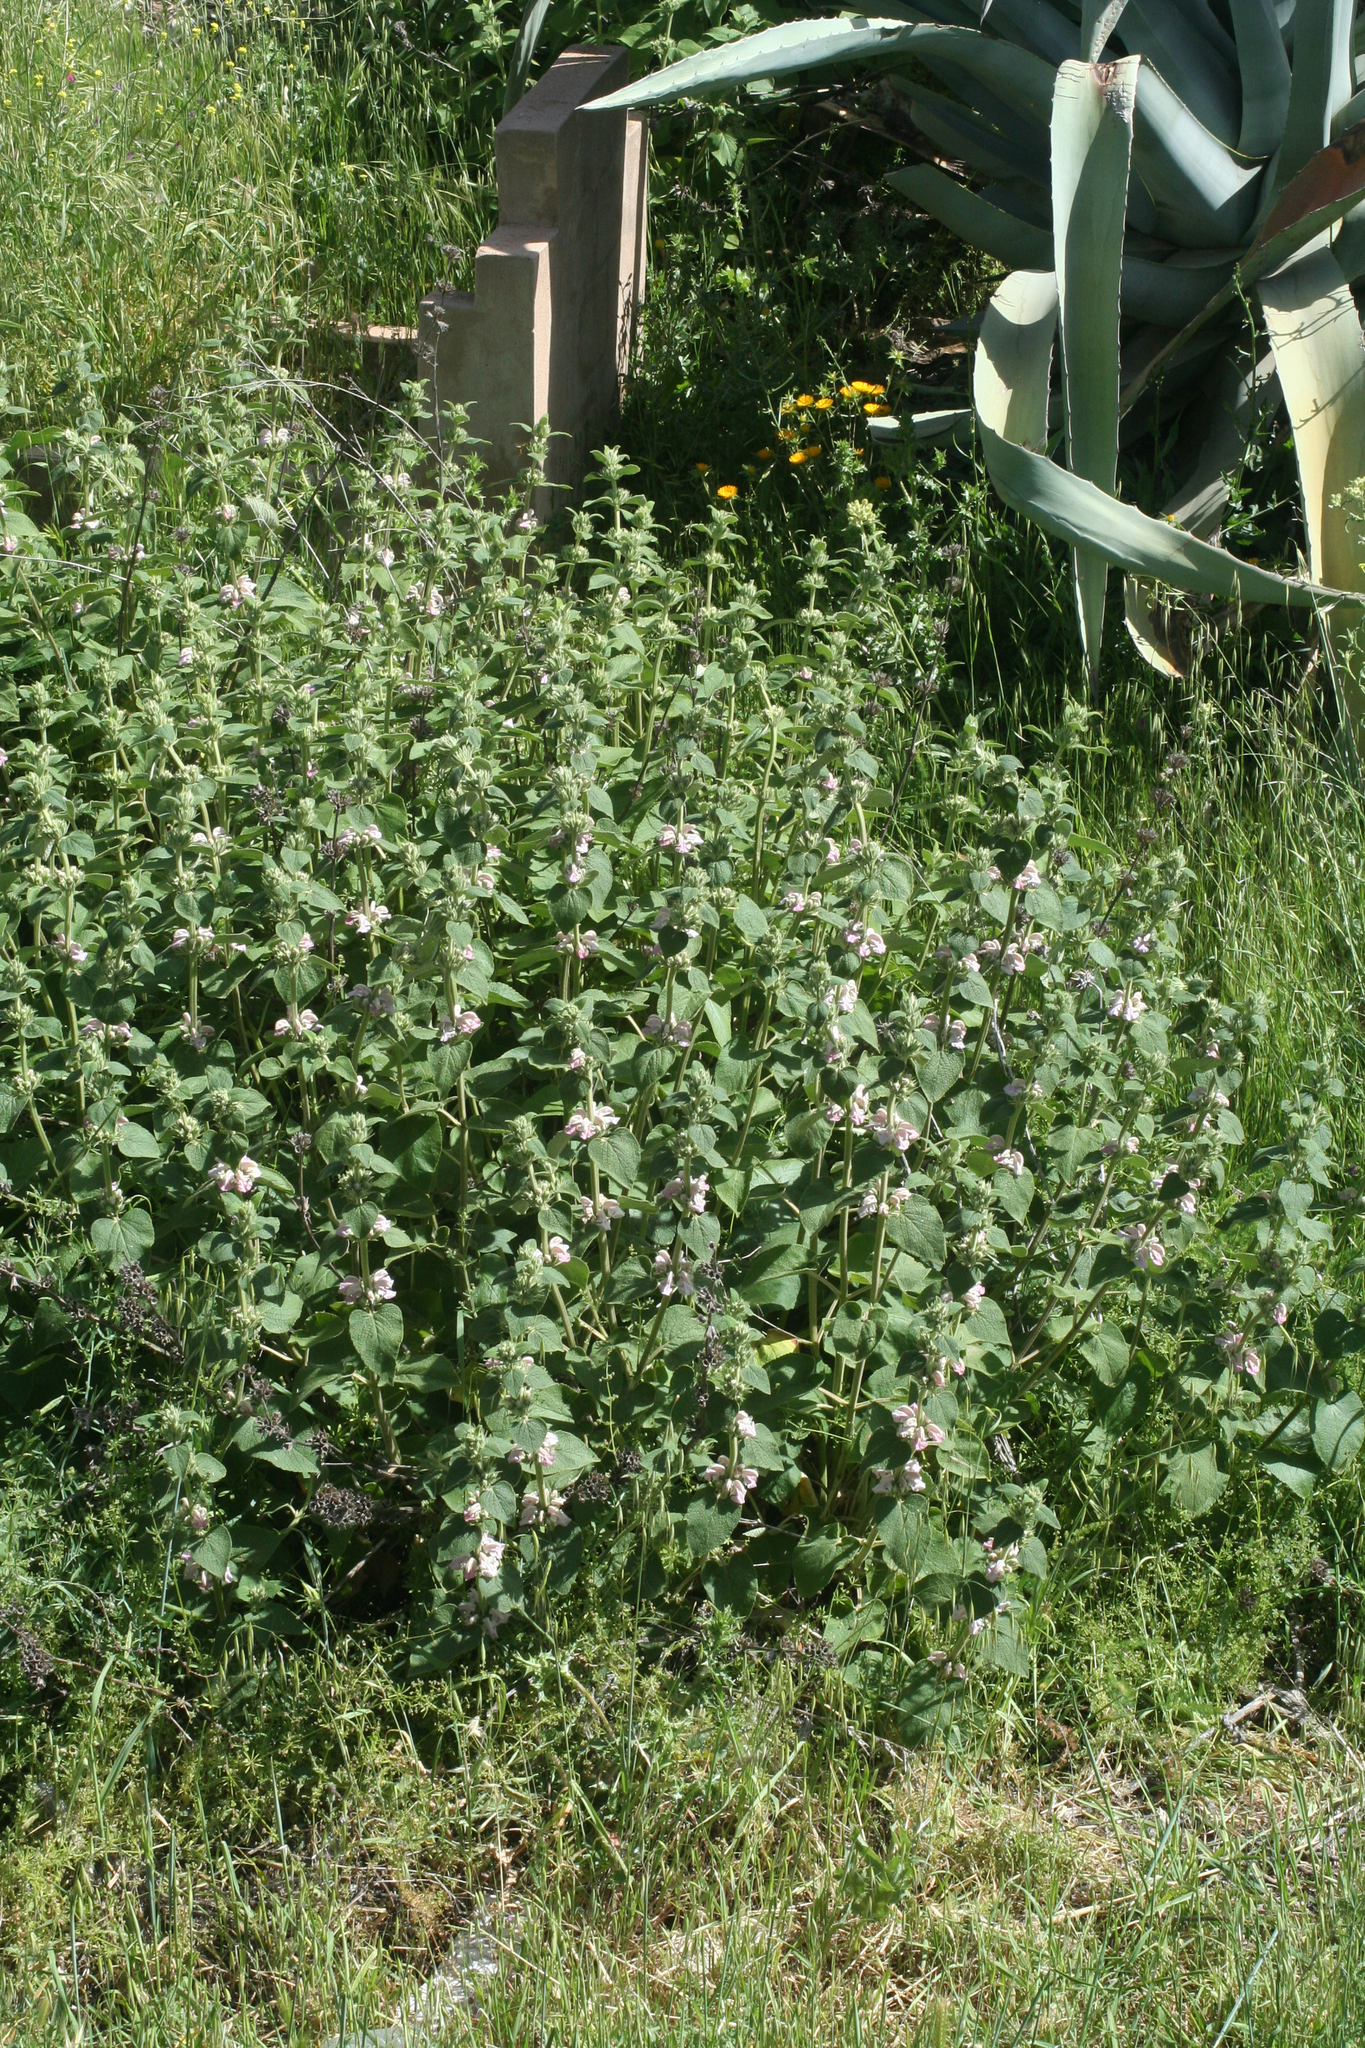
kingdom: Plantae
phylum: Tracheophyta
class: Magnoliopsida
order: Lamiales
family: Lamiaceae
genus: Phlomis
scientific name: Phlomis bovei
